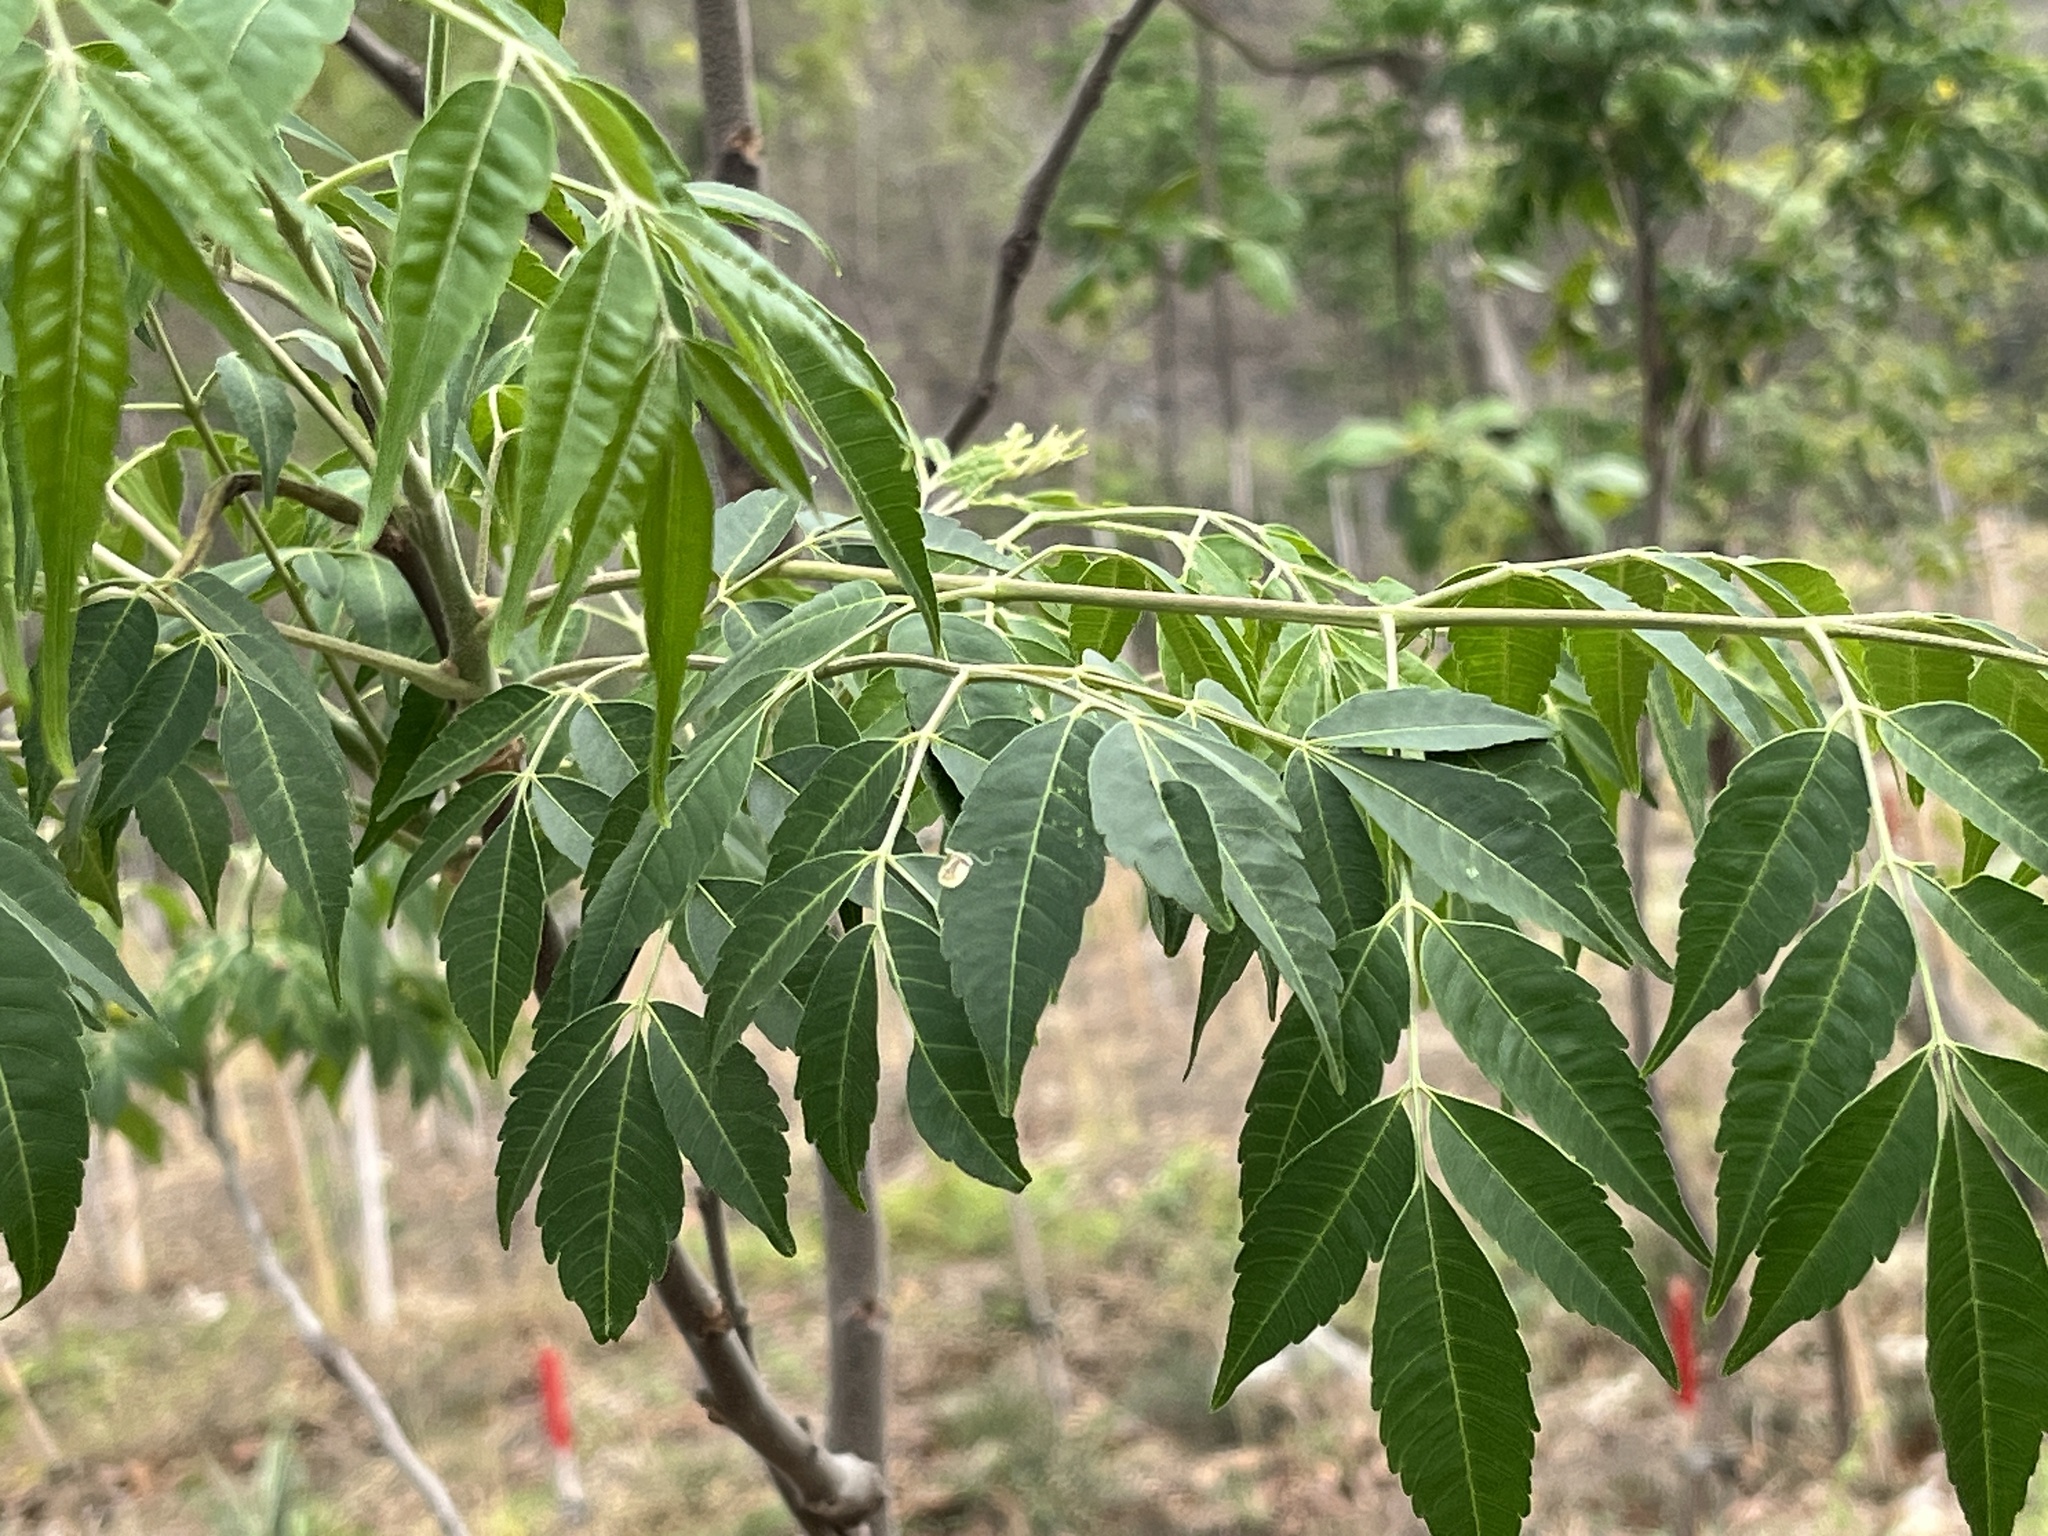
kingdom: Plantae
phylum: Tracheophyta
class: Magnoliopsida
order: Sapindales
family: Meliaceae
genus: Melia
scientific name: Melia azedarach
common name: Chinaberrytree
